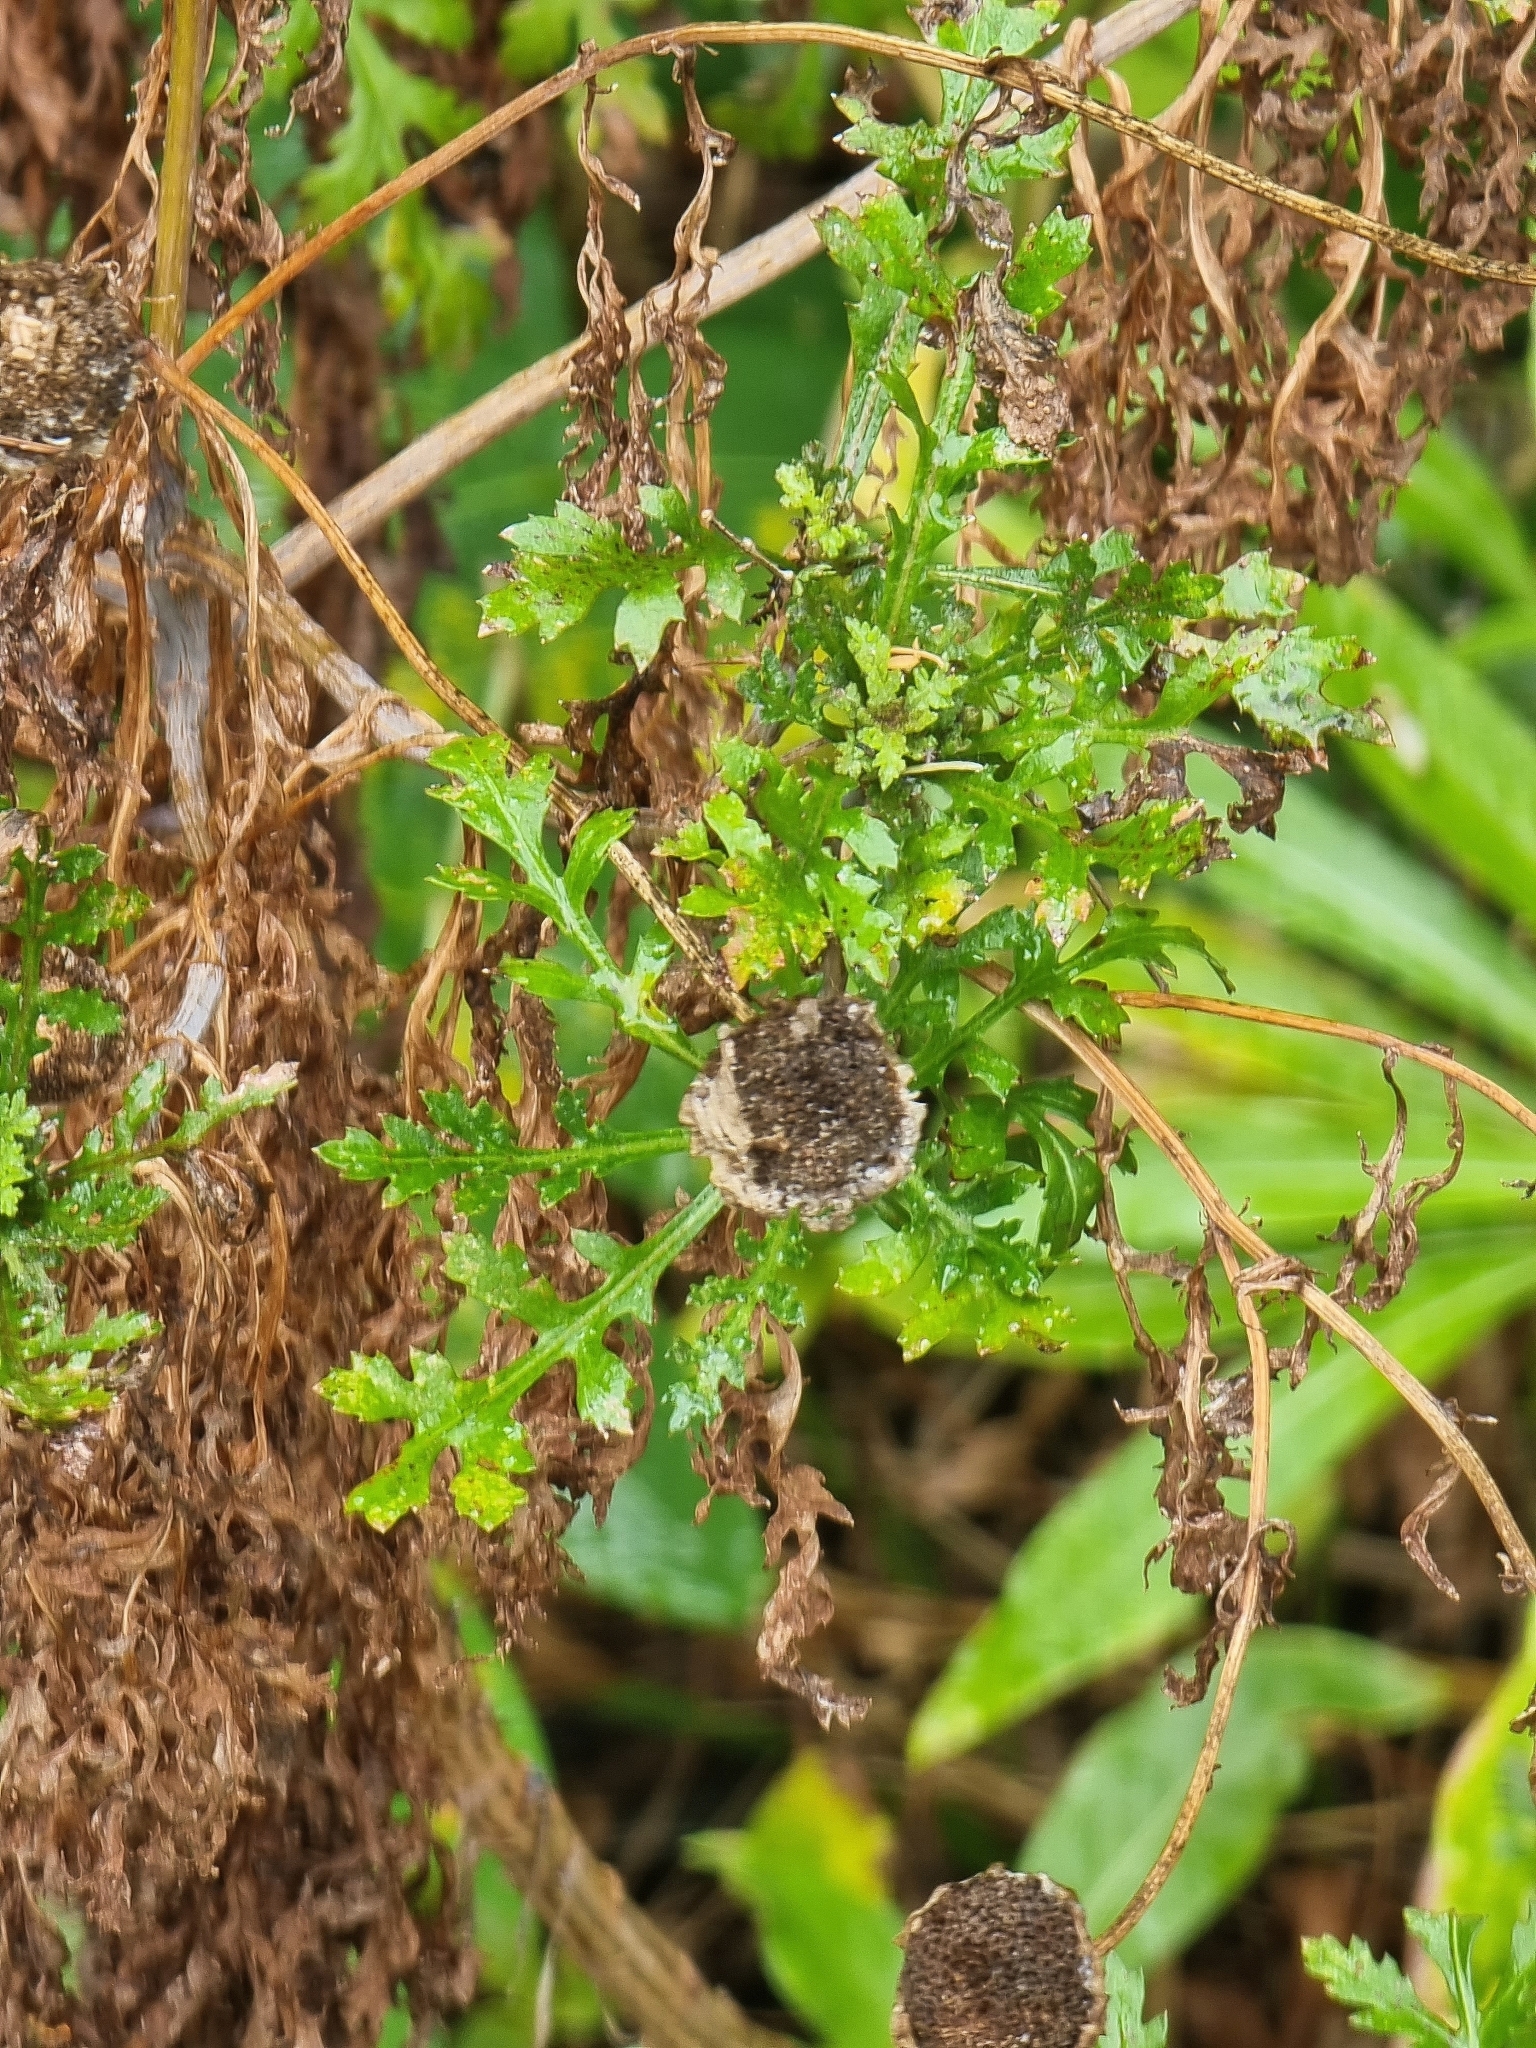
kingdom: Plantae
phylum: Tracheophyta
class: Magnoliopsida
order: Asterales
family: Asteraceae
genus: Argyranthemum
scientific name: Argyranthemum dissectum
